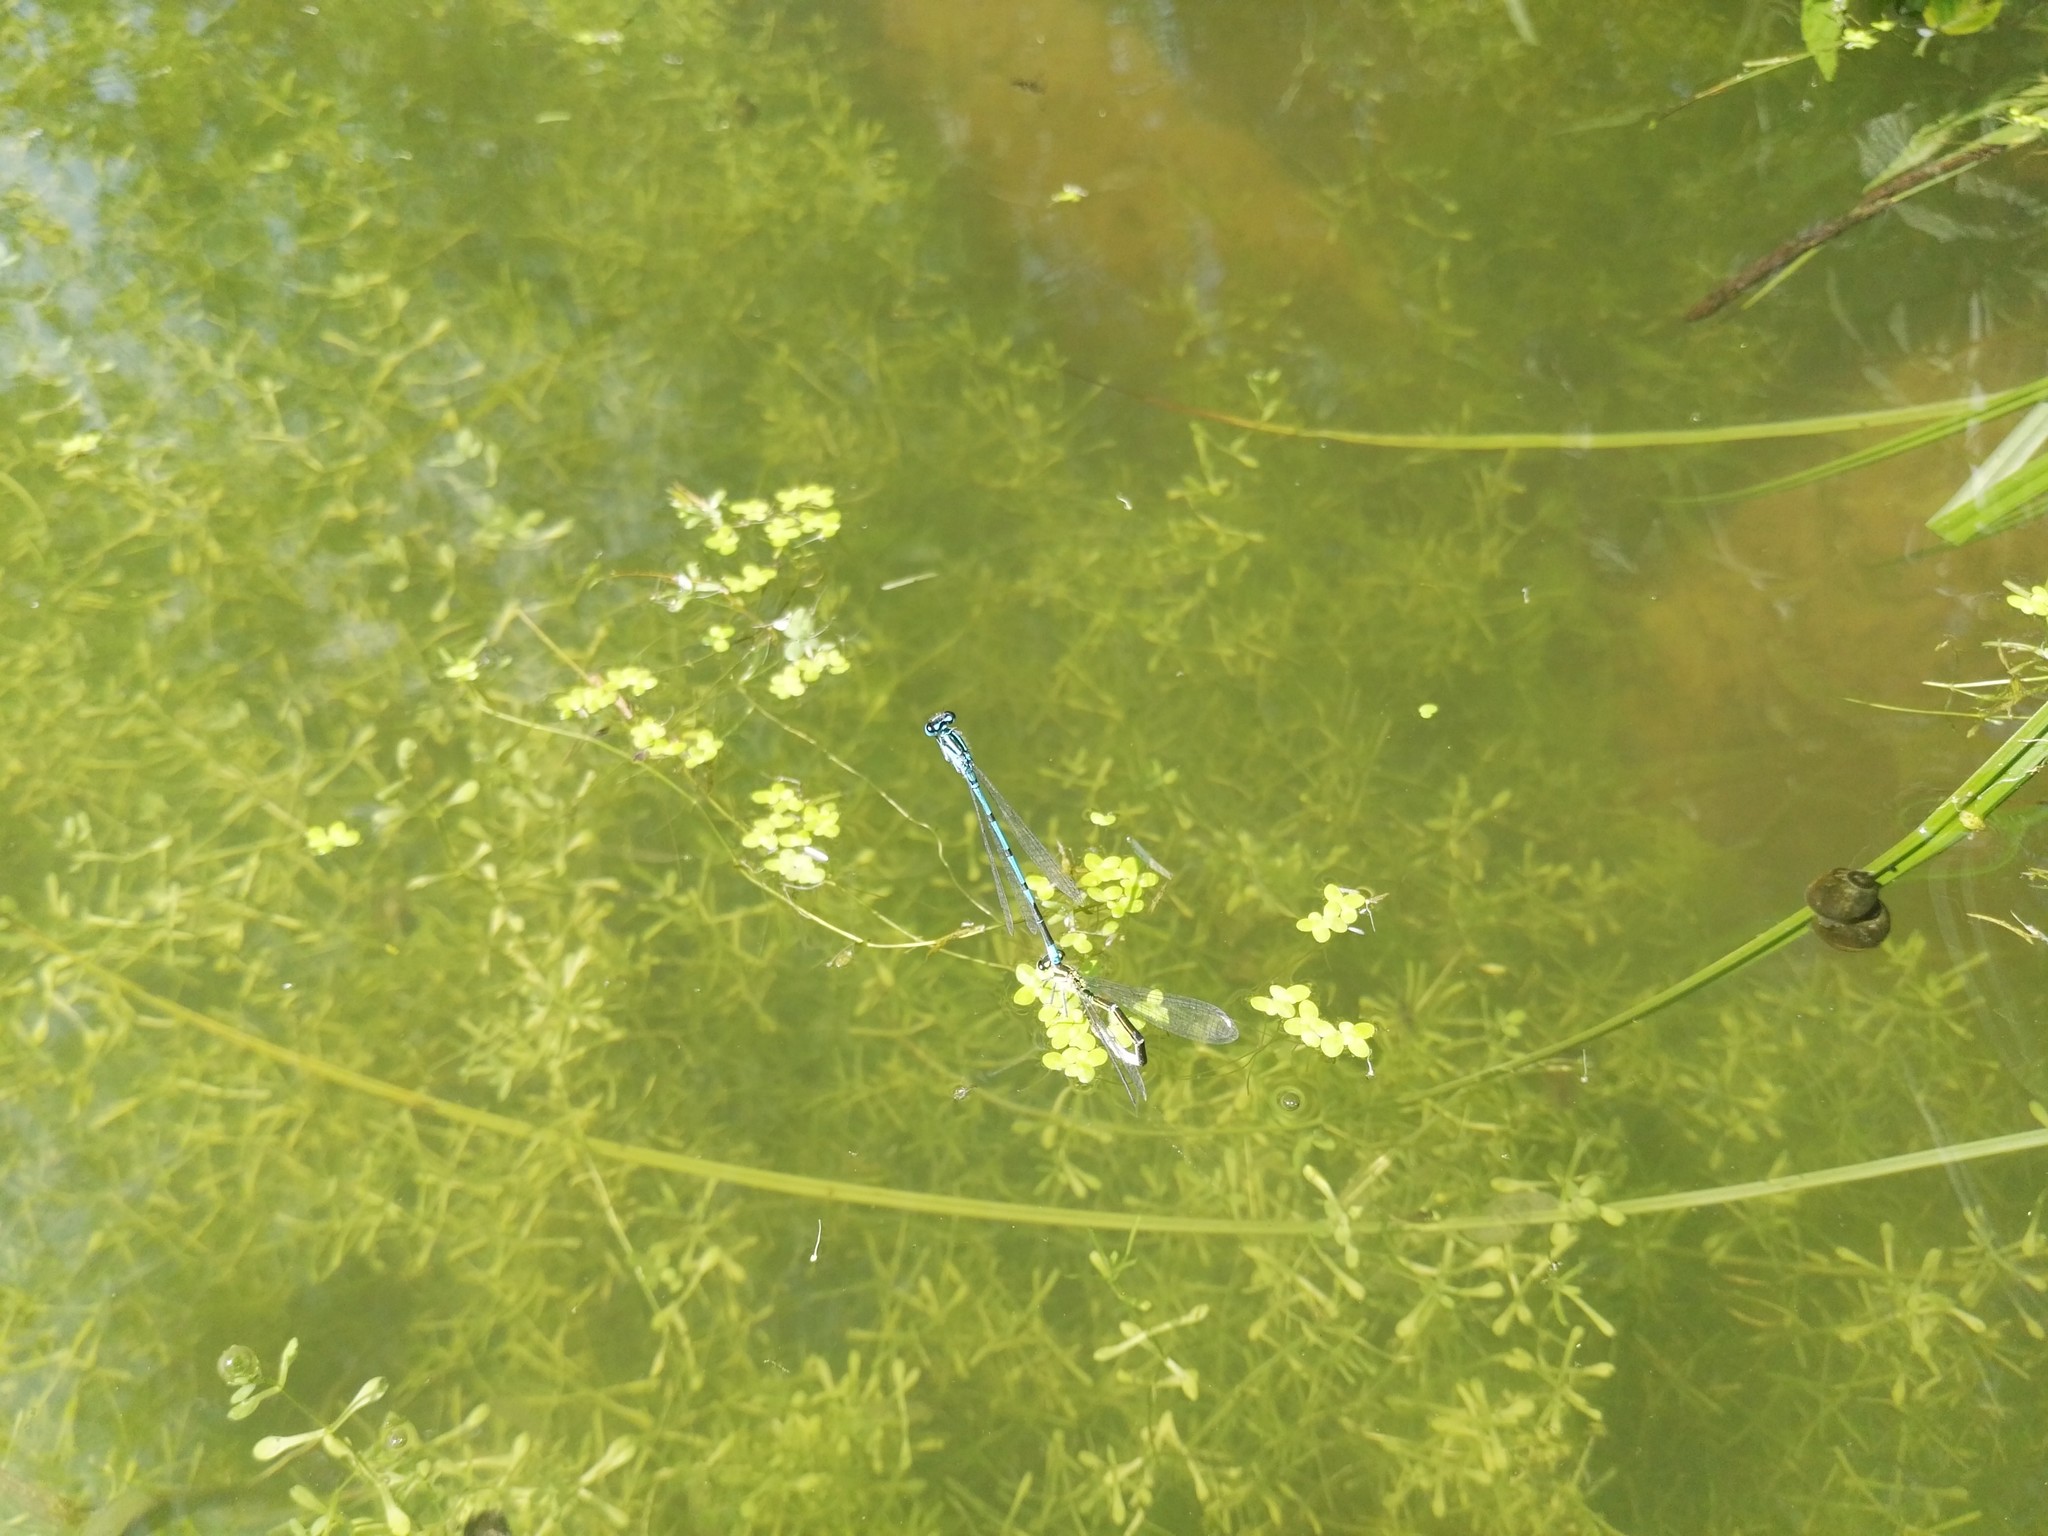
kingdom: Animalia
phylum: Arthropoda
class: Insecta
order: Odonata
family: Coenagrionidae
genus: Coenagrion
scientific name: Coenagrion puella
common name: Azure damselfly
